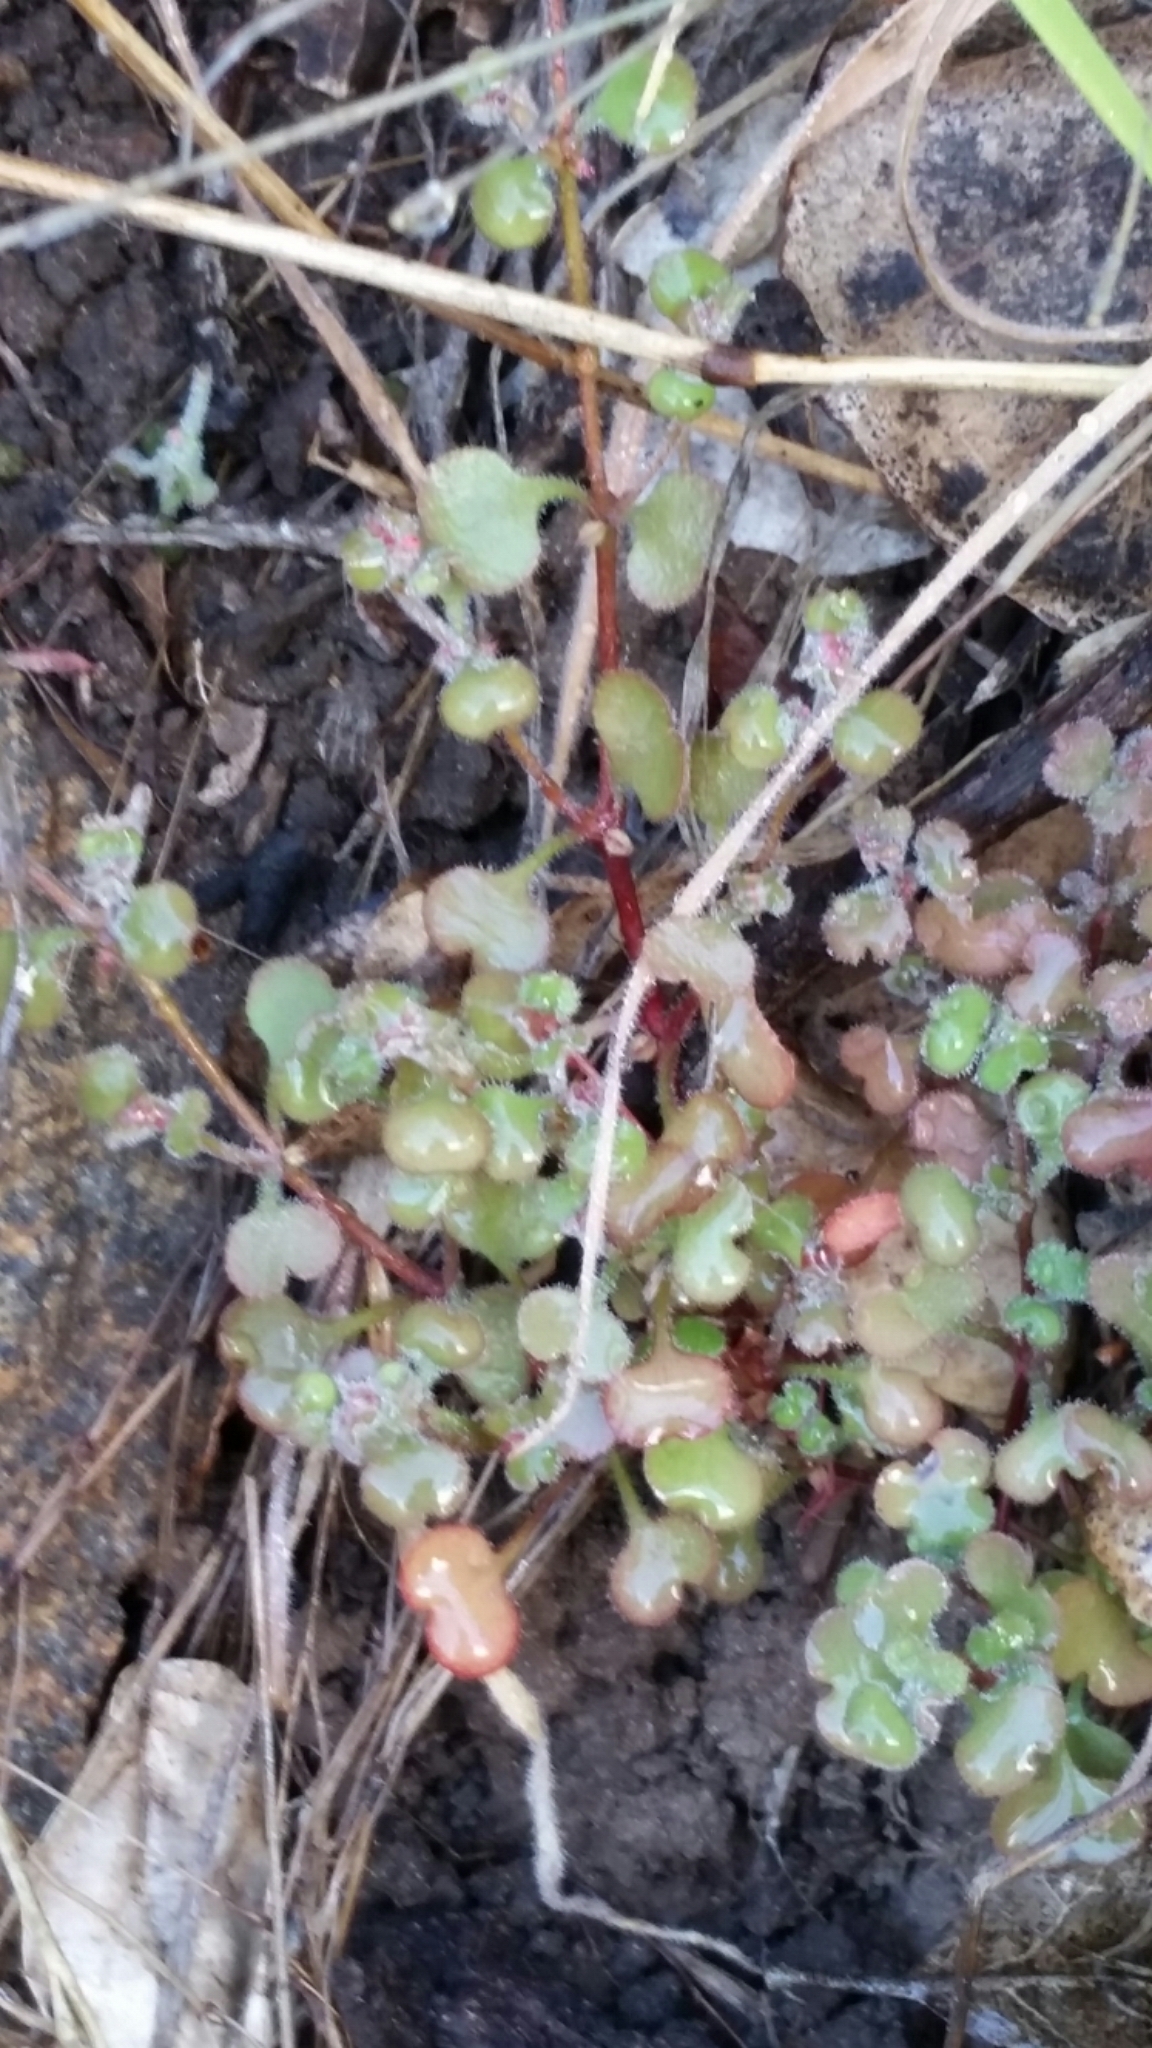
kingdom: Plantae
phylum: Tracheophyta
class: Magnoliopsida
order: Caryophyllales
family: Polygonaceae
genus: Pterostegia
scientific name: Pterostegia drymarioides
